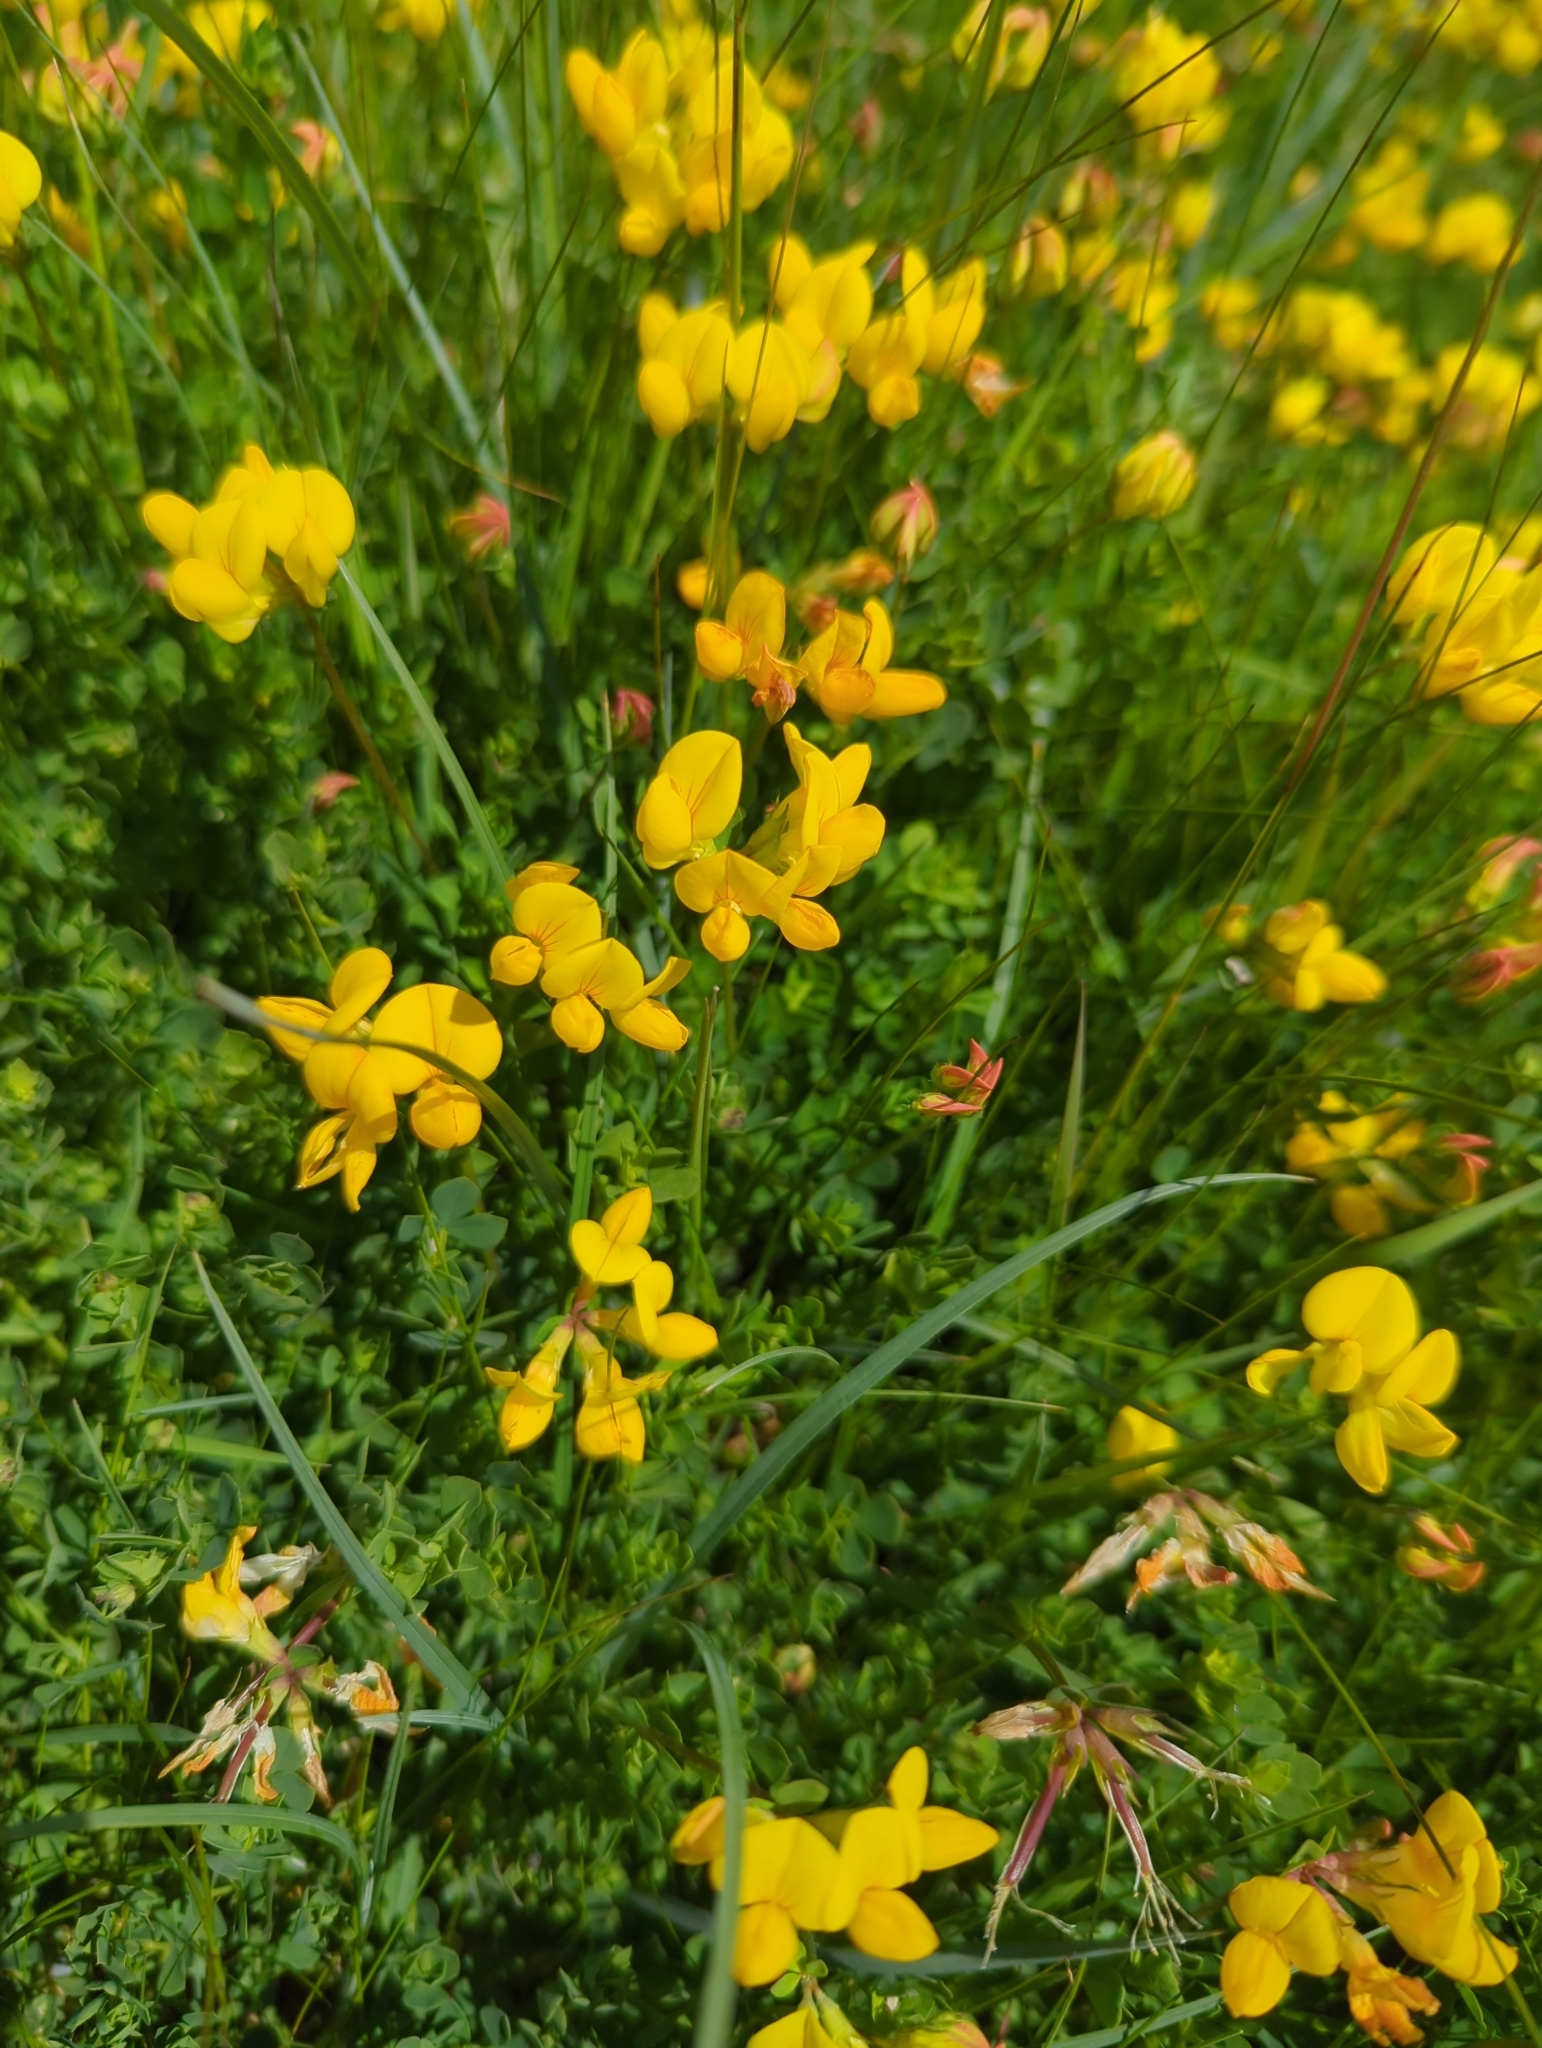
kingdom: Plantae
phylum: Tracheophyta
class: Magnoliopsida
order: Fabales
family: Fabaceae
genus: Lotus
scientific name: Lotus corniculatus
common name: Common bird's-foot-trefoil
